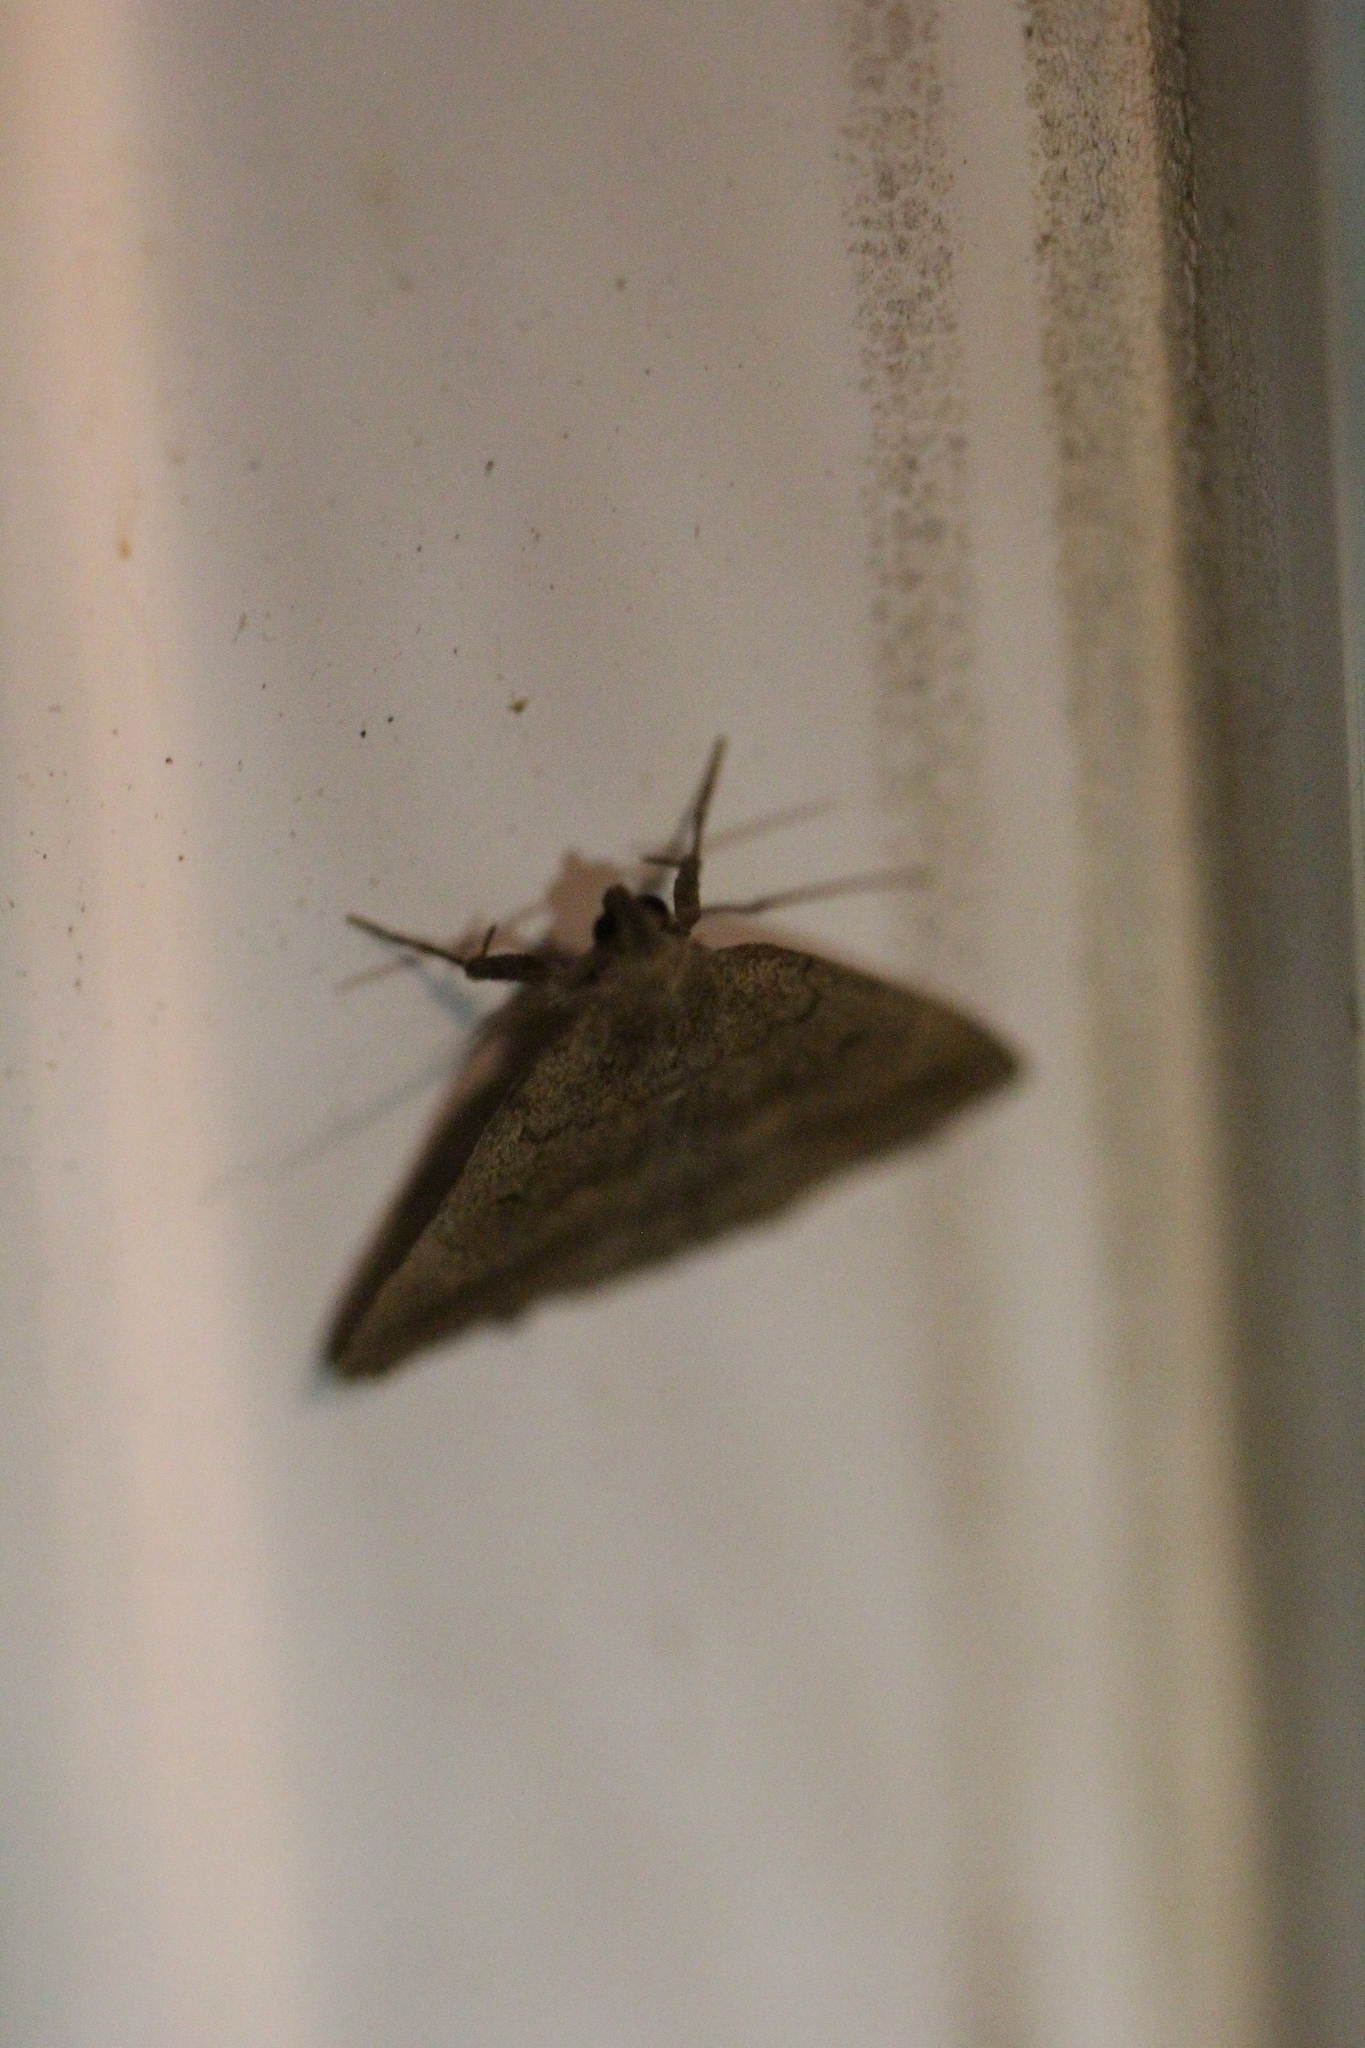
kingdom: Animalia
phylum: Arthropoda
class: Insecta
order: Lepidoptera
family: Erebidae
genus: Zanclognatha
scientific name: Zanclognatha jacchusalis
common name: Yellowish zanclognatha
